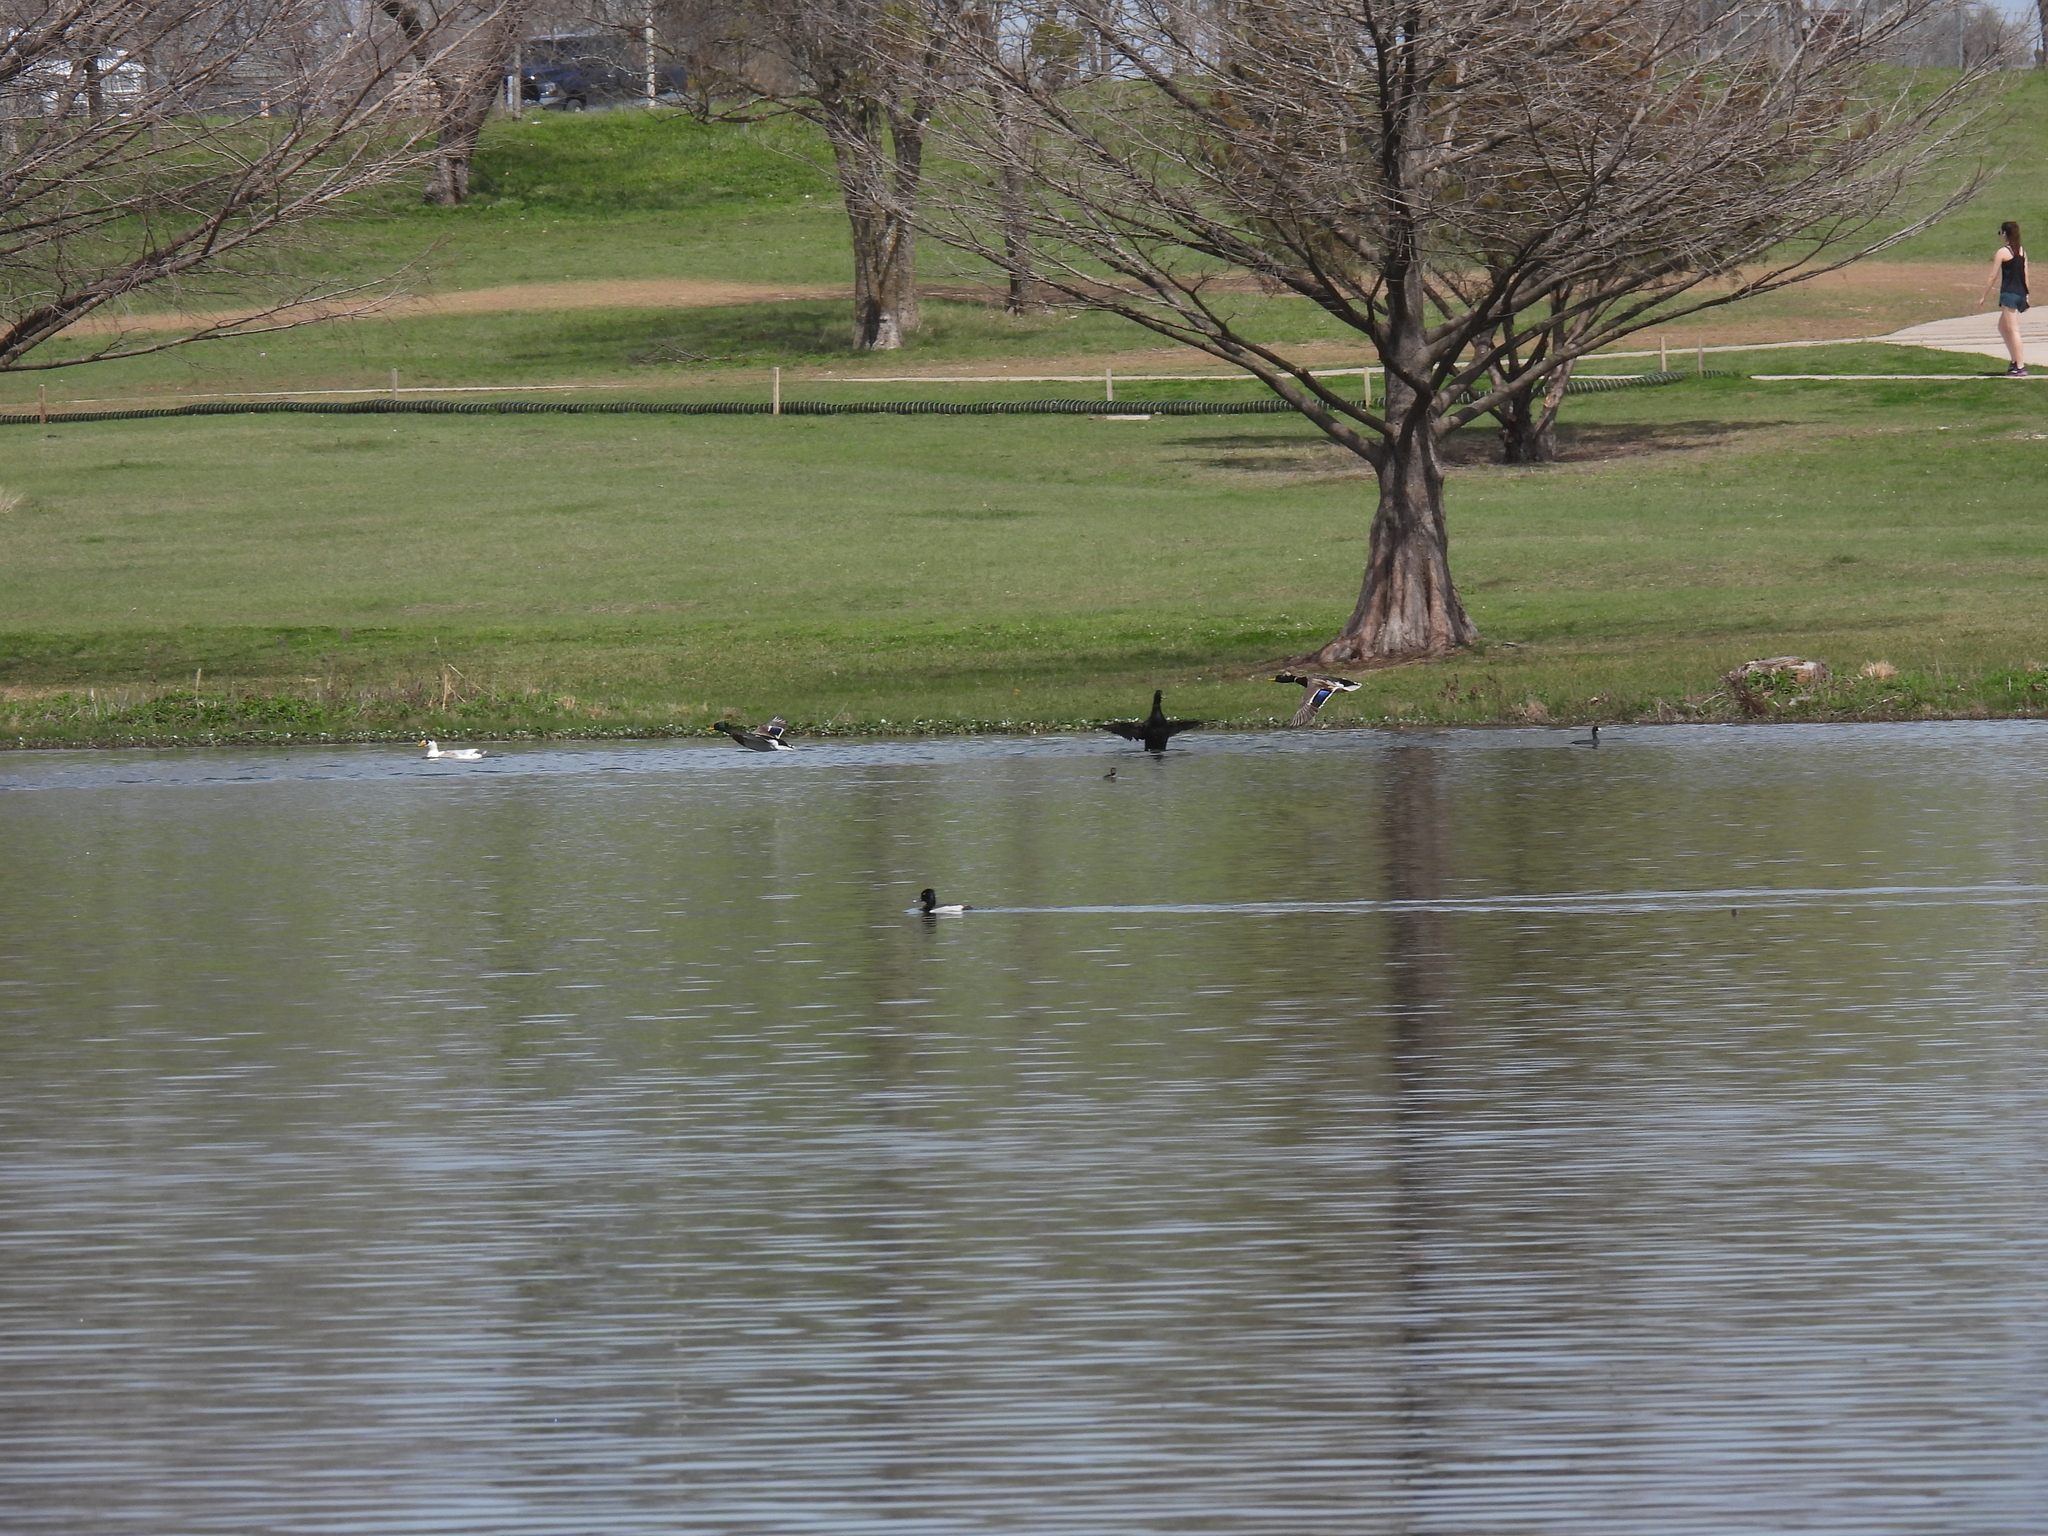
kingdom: Animalia
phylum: Chordata
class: Aves
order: Anseriformes
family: Anatidae
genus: Anas
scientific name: Anas platyrhynchos
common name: Mallard
